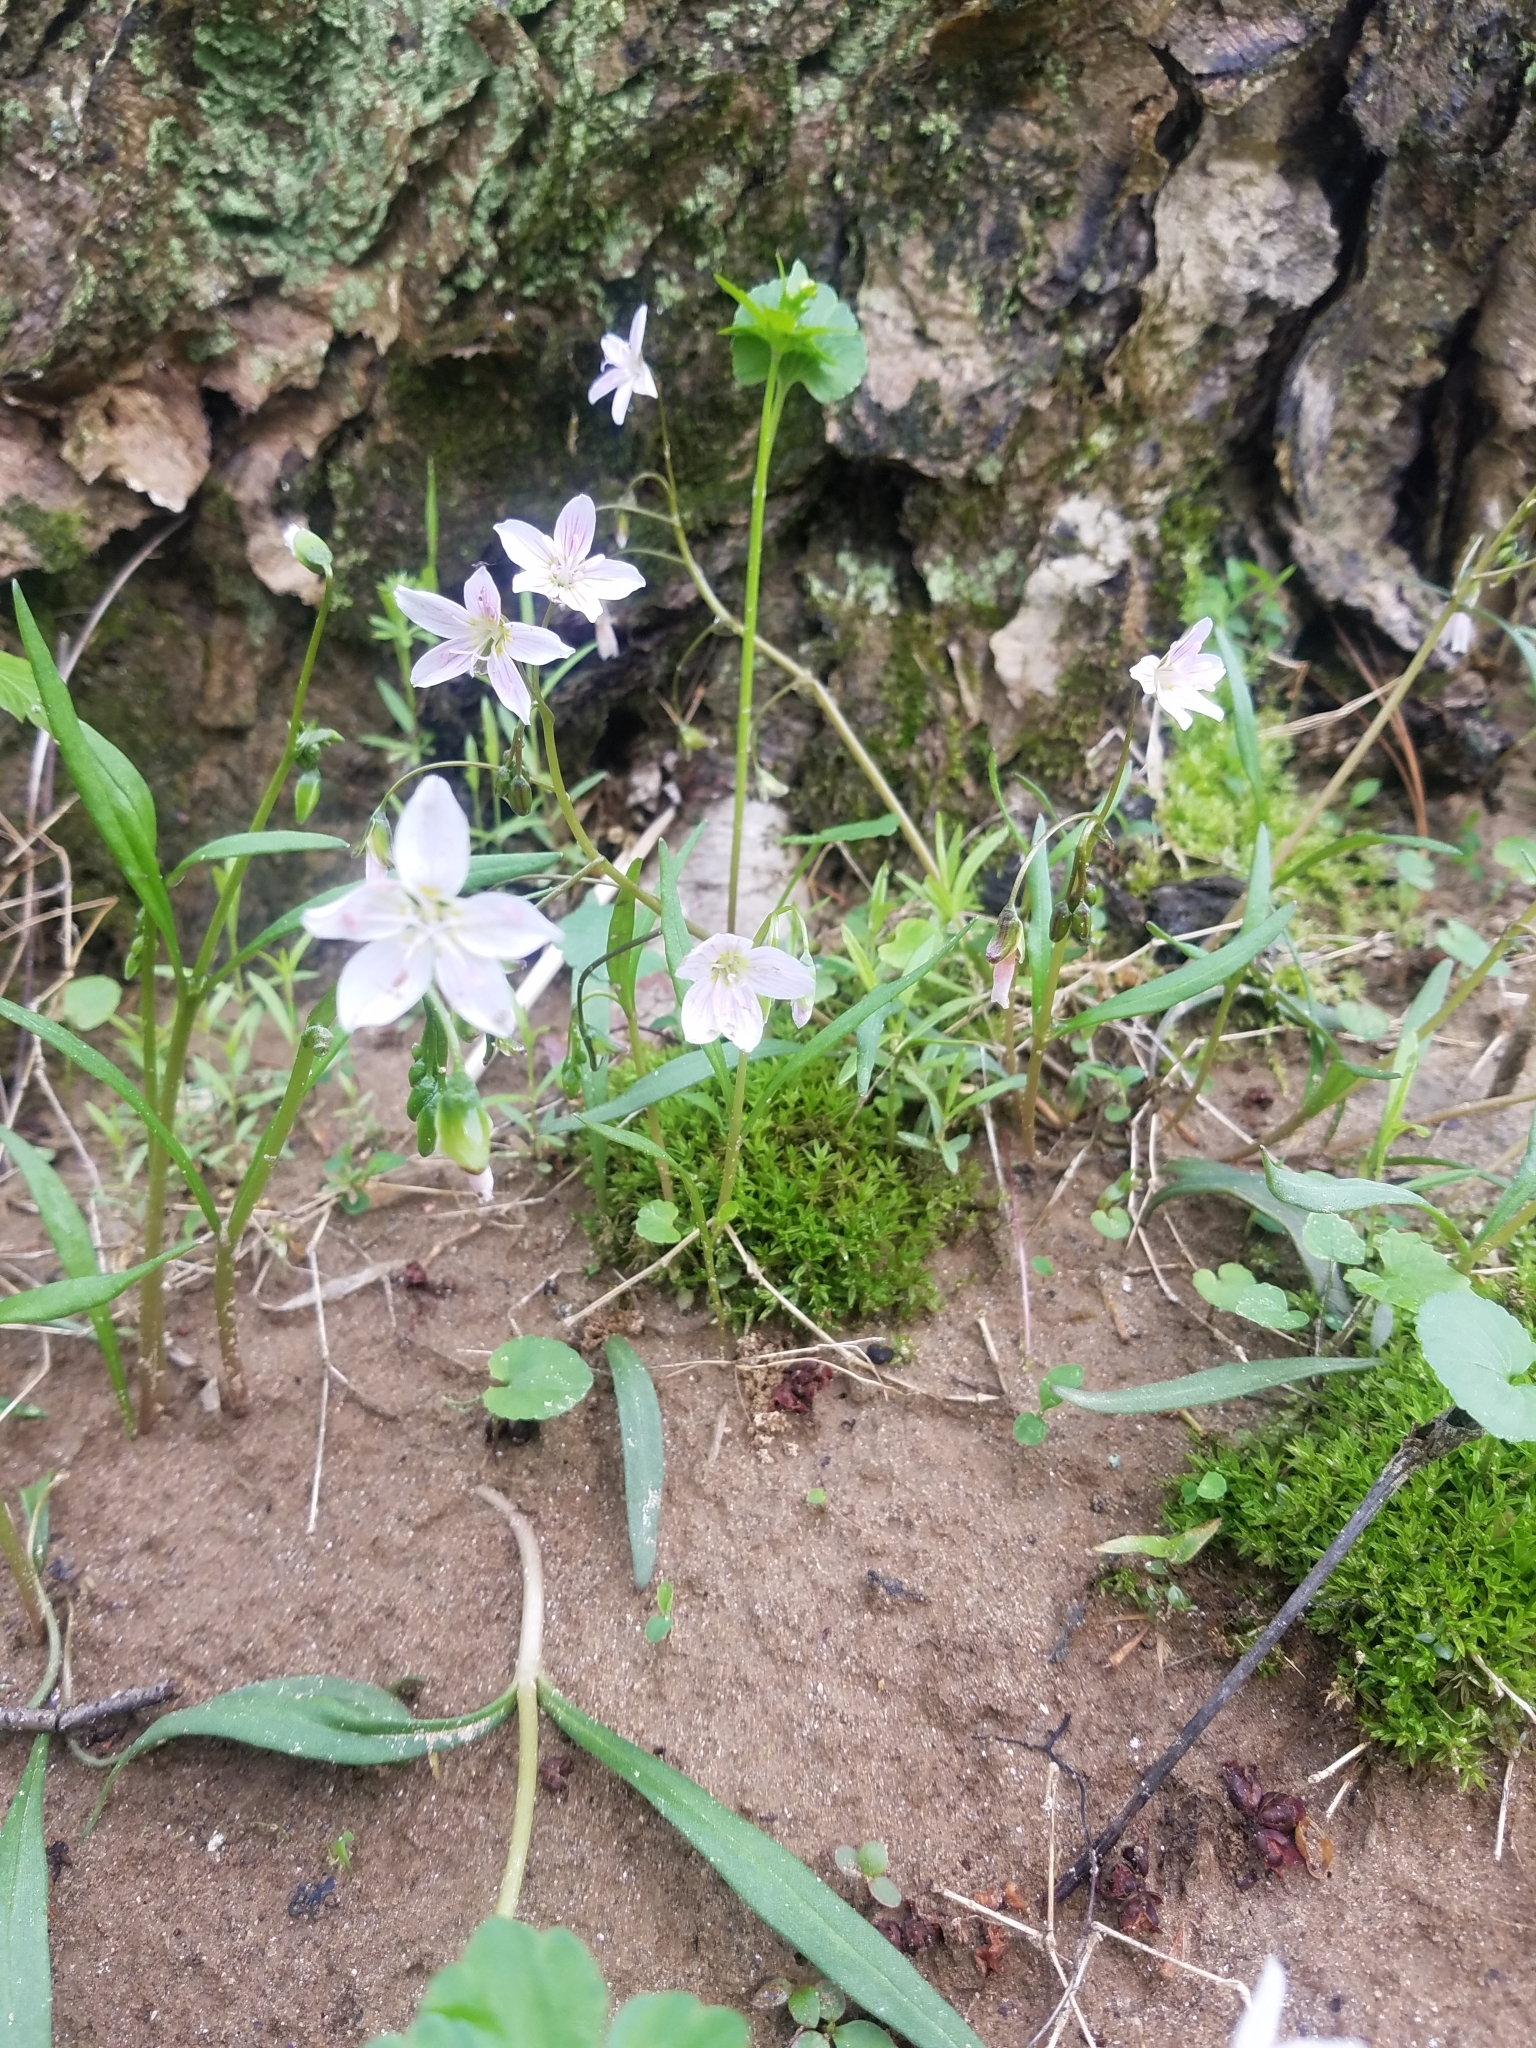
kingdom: Plantae
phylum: Tracheophyta
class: Magnoliopsida
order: Caryophyllales
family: Montiaceae
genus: Claytonia
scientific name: Claytonia virginica
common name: Virginia springbeauty
